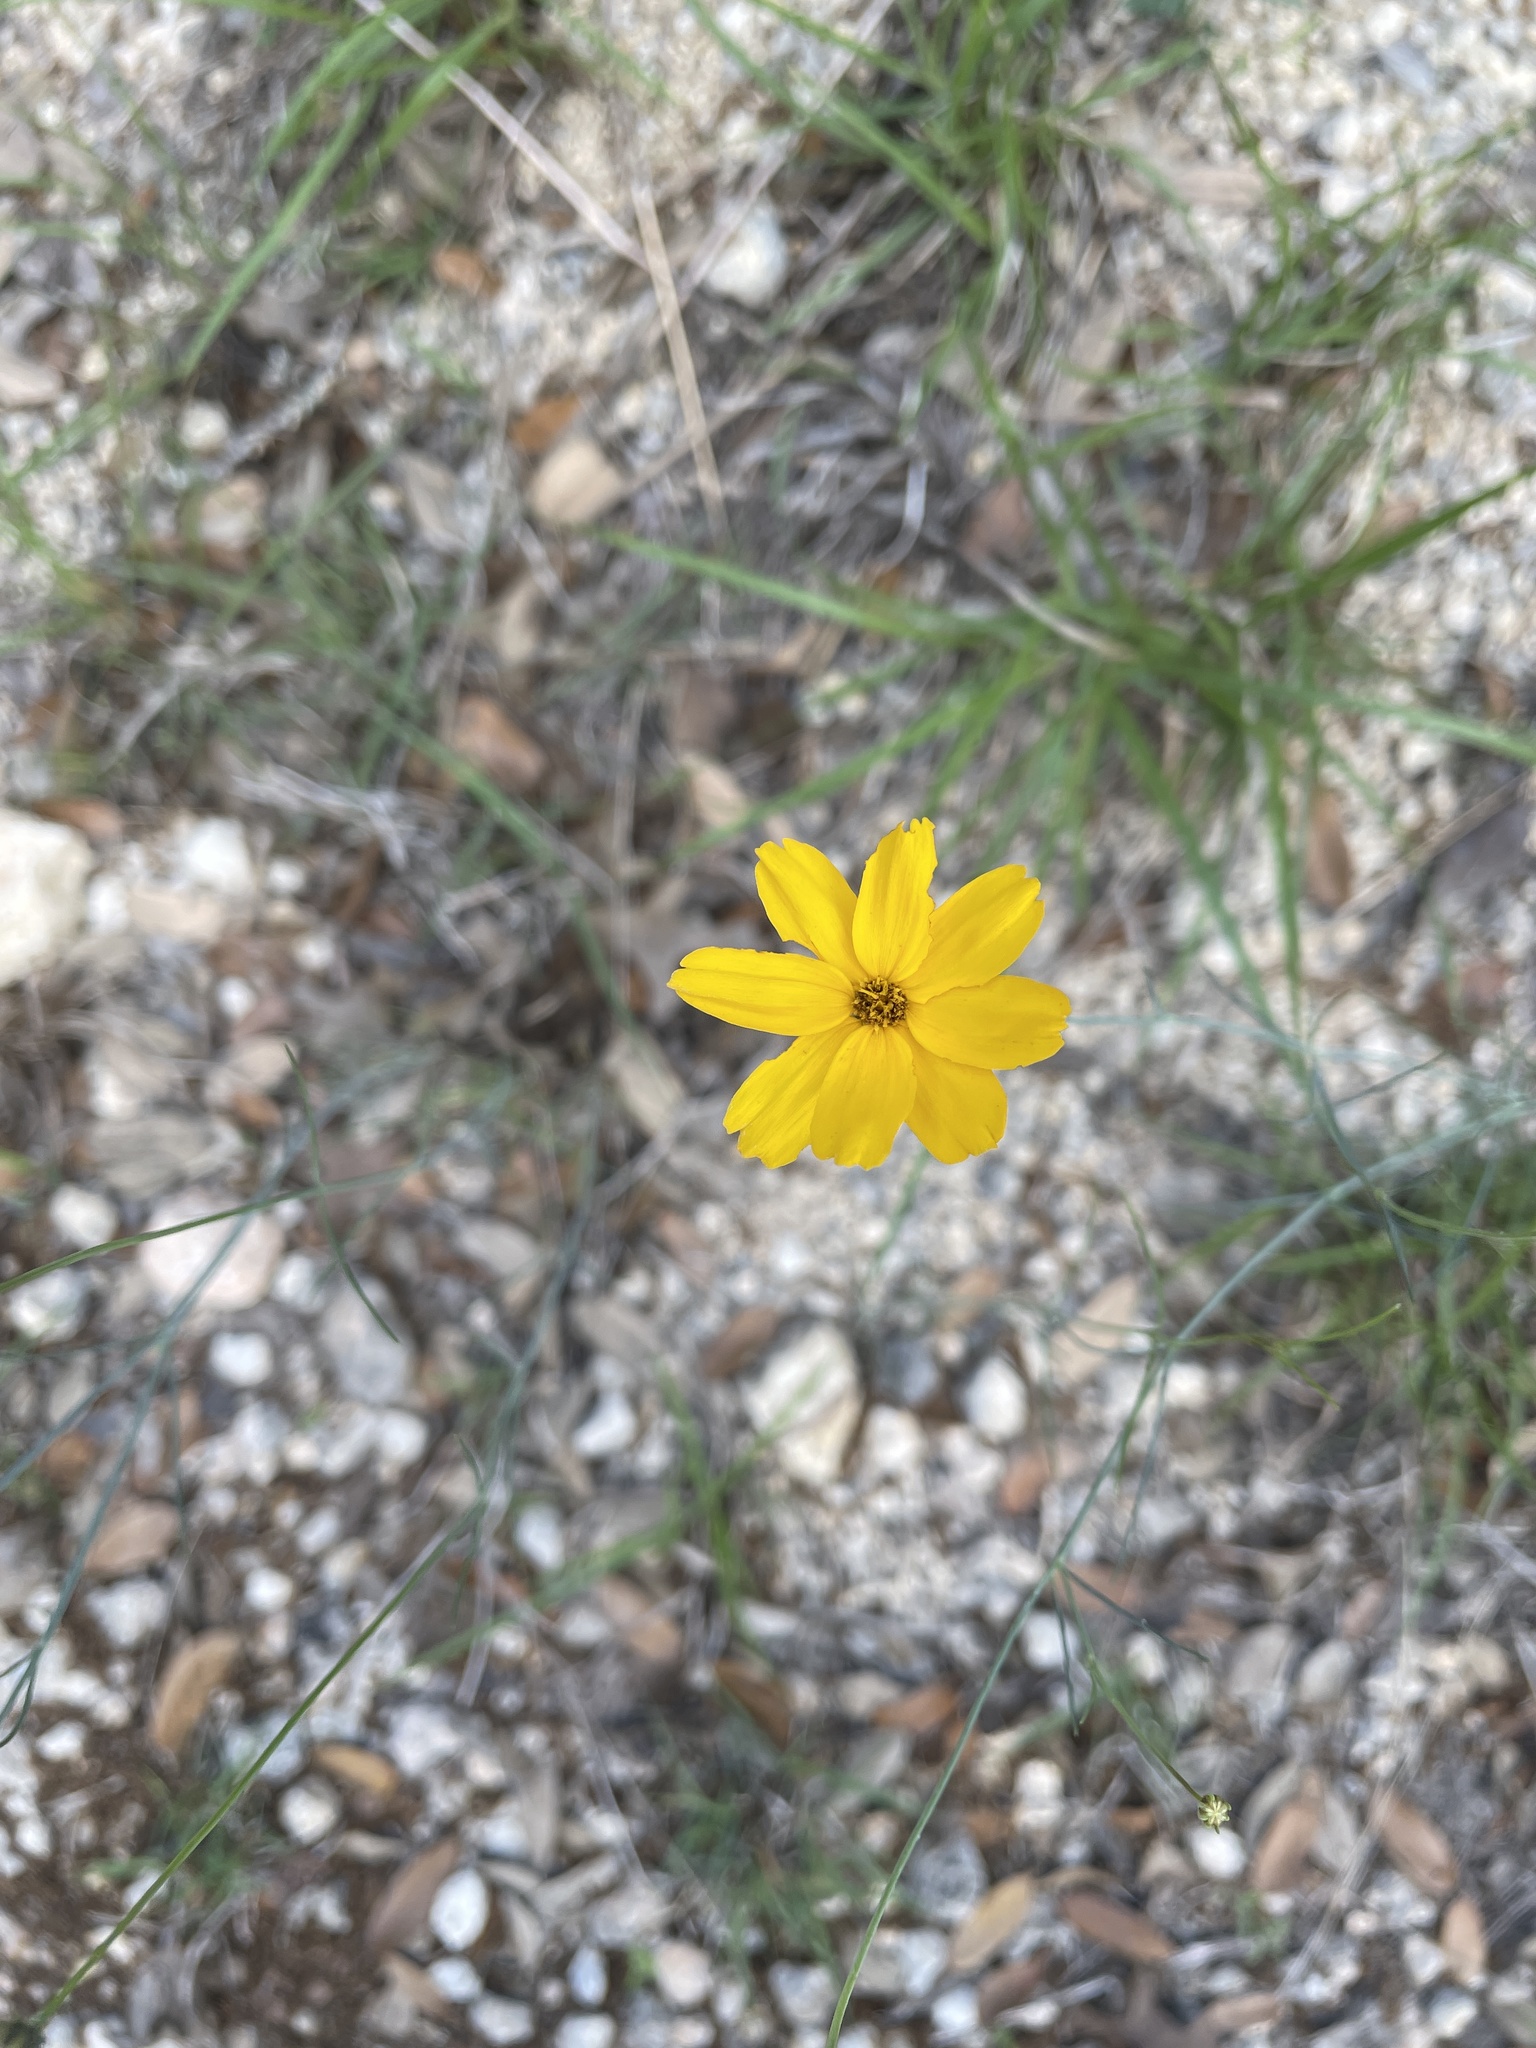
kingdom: Plantae
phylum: Tracheophyta
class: Magnoliopsida
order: Asterales
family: Asteraceae
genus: Thelesperma
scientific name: Thelesperma simplicifolium
